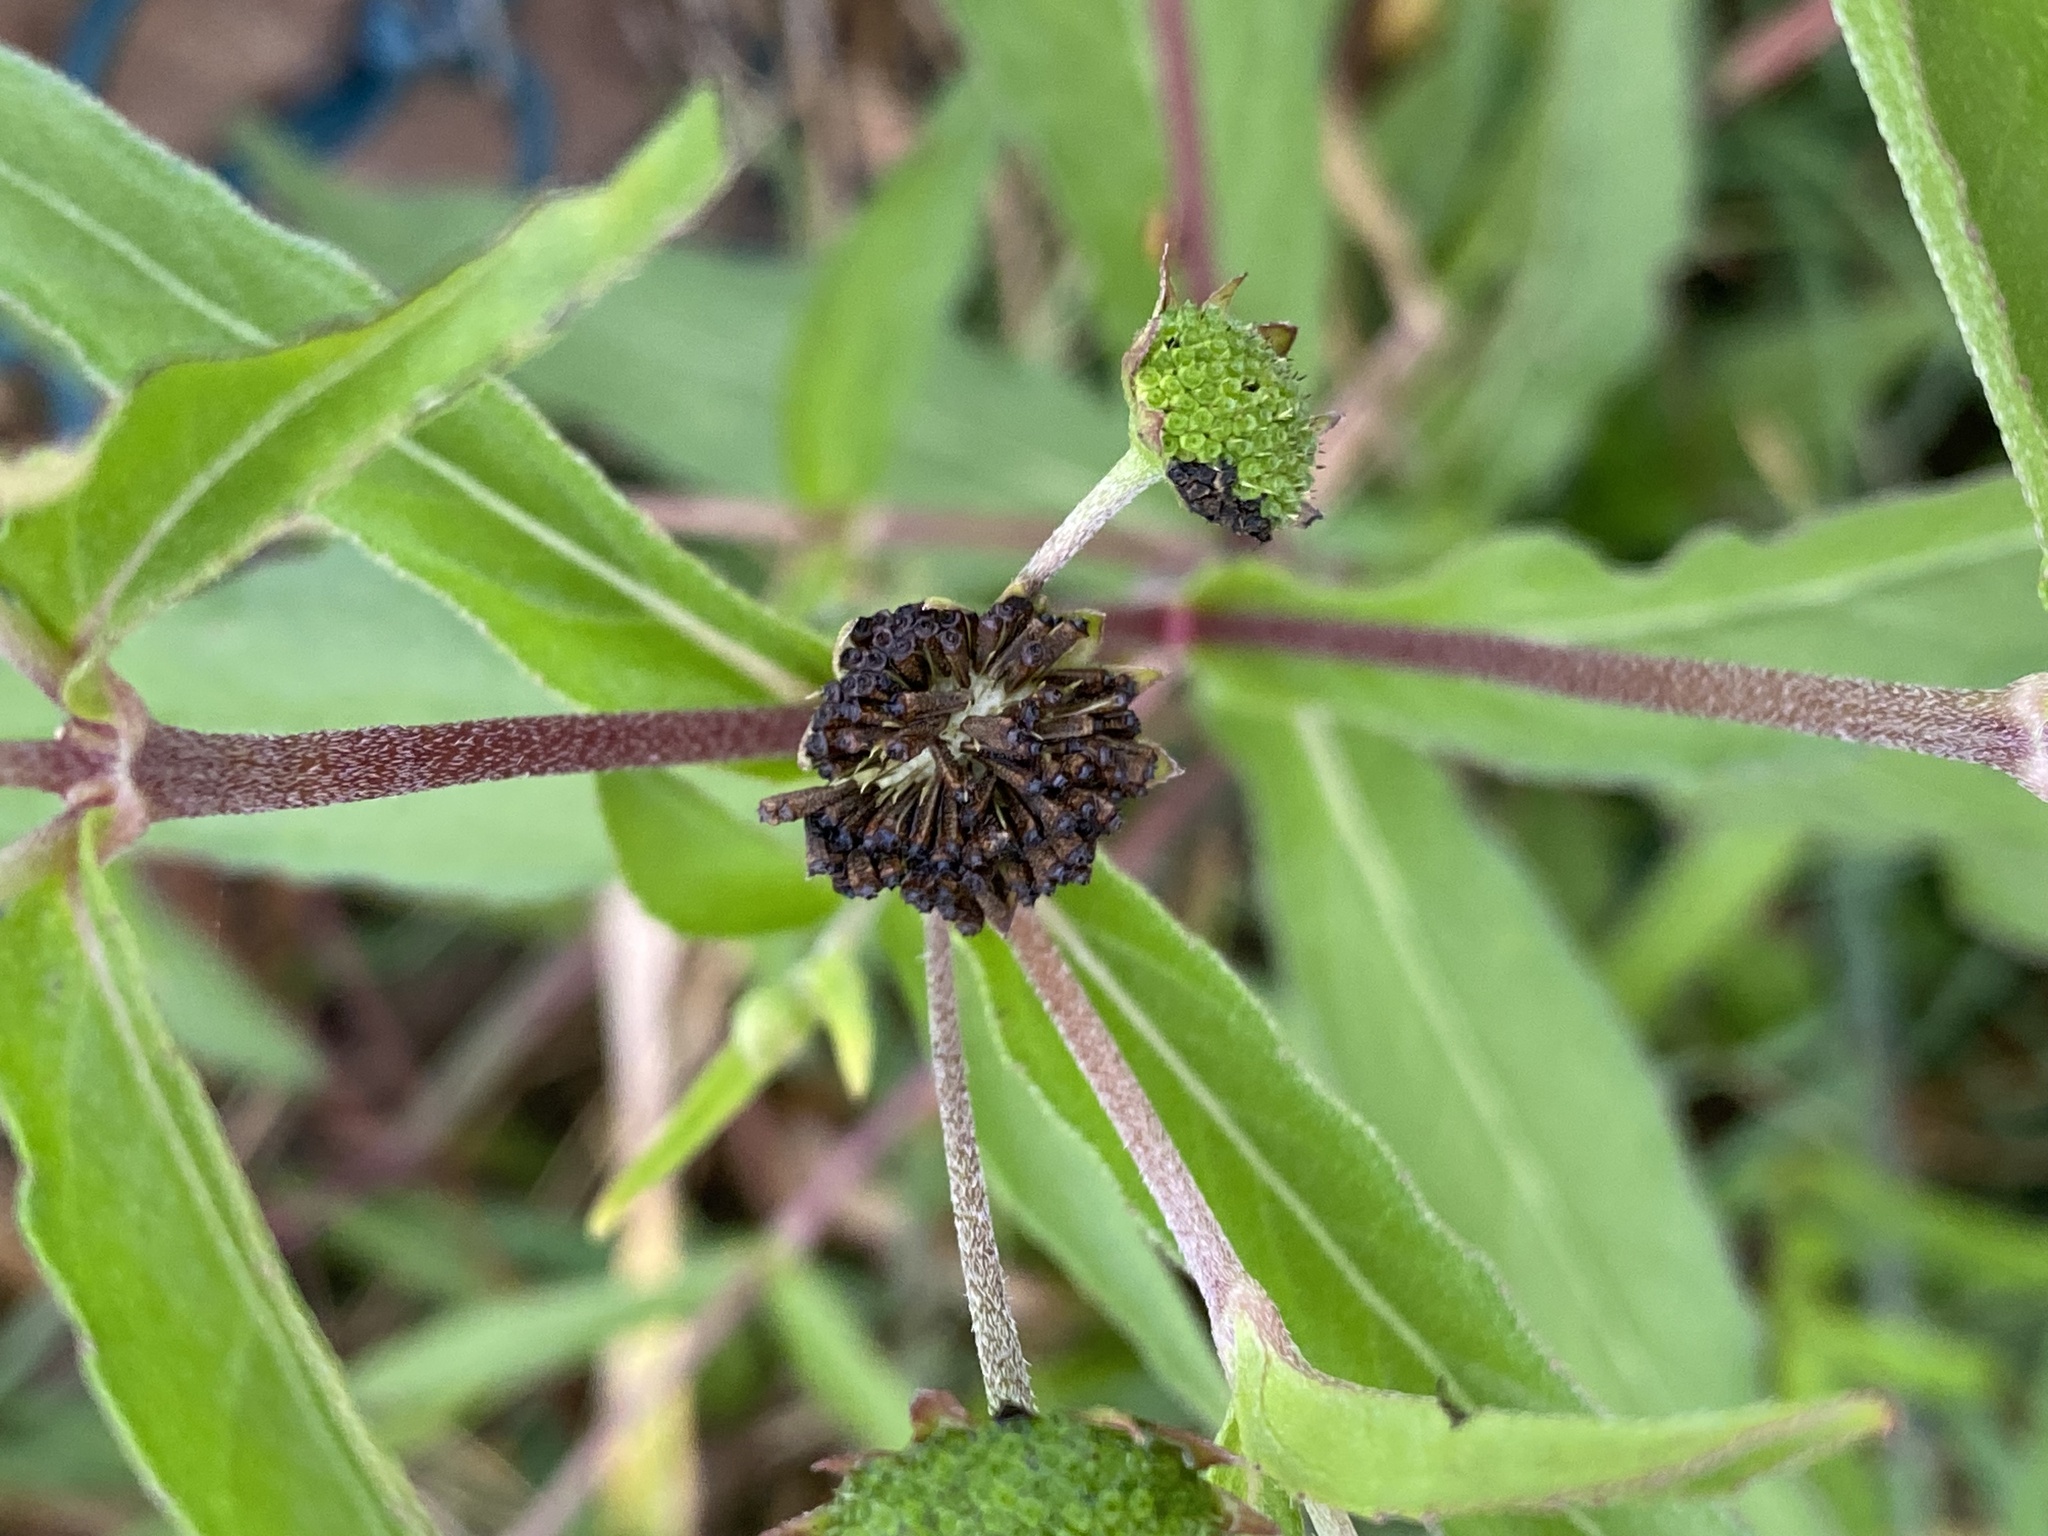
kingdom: Plantae
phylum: Tracheophyta
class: Magnoliopsida
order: Asterales
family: Asteraceae
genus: Eclipta
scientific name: Eclipta prostrata
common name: False daisy
